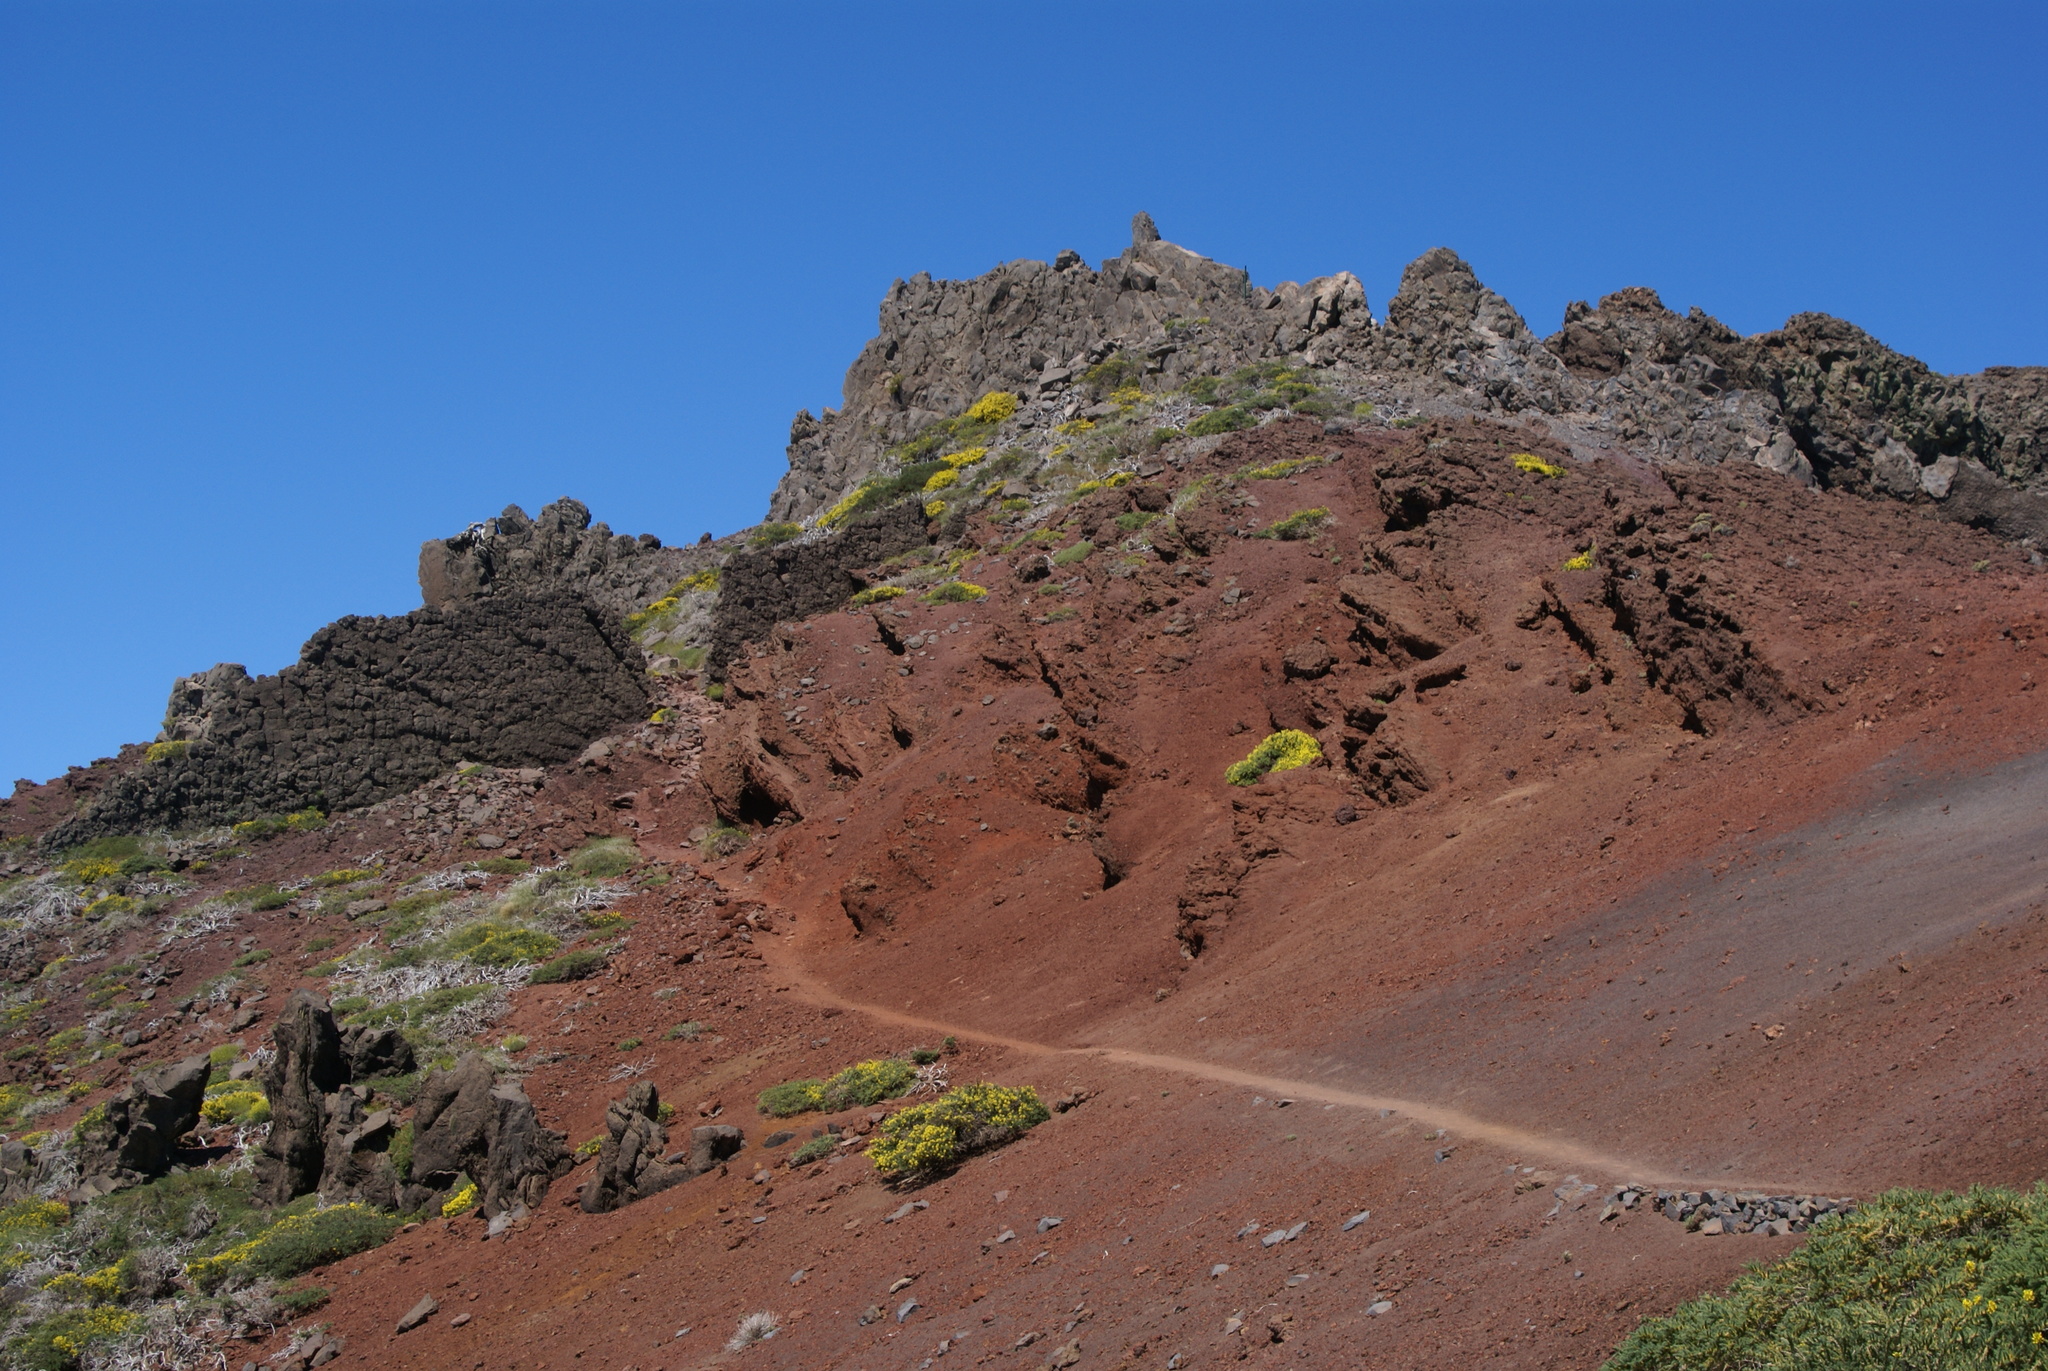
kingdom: Plantae
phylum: Tracheophyta
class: Magnoliopsida
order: Fabales
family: Fabaceae
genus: Adenocarpus
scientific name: Adenocarpus viscosus
